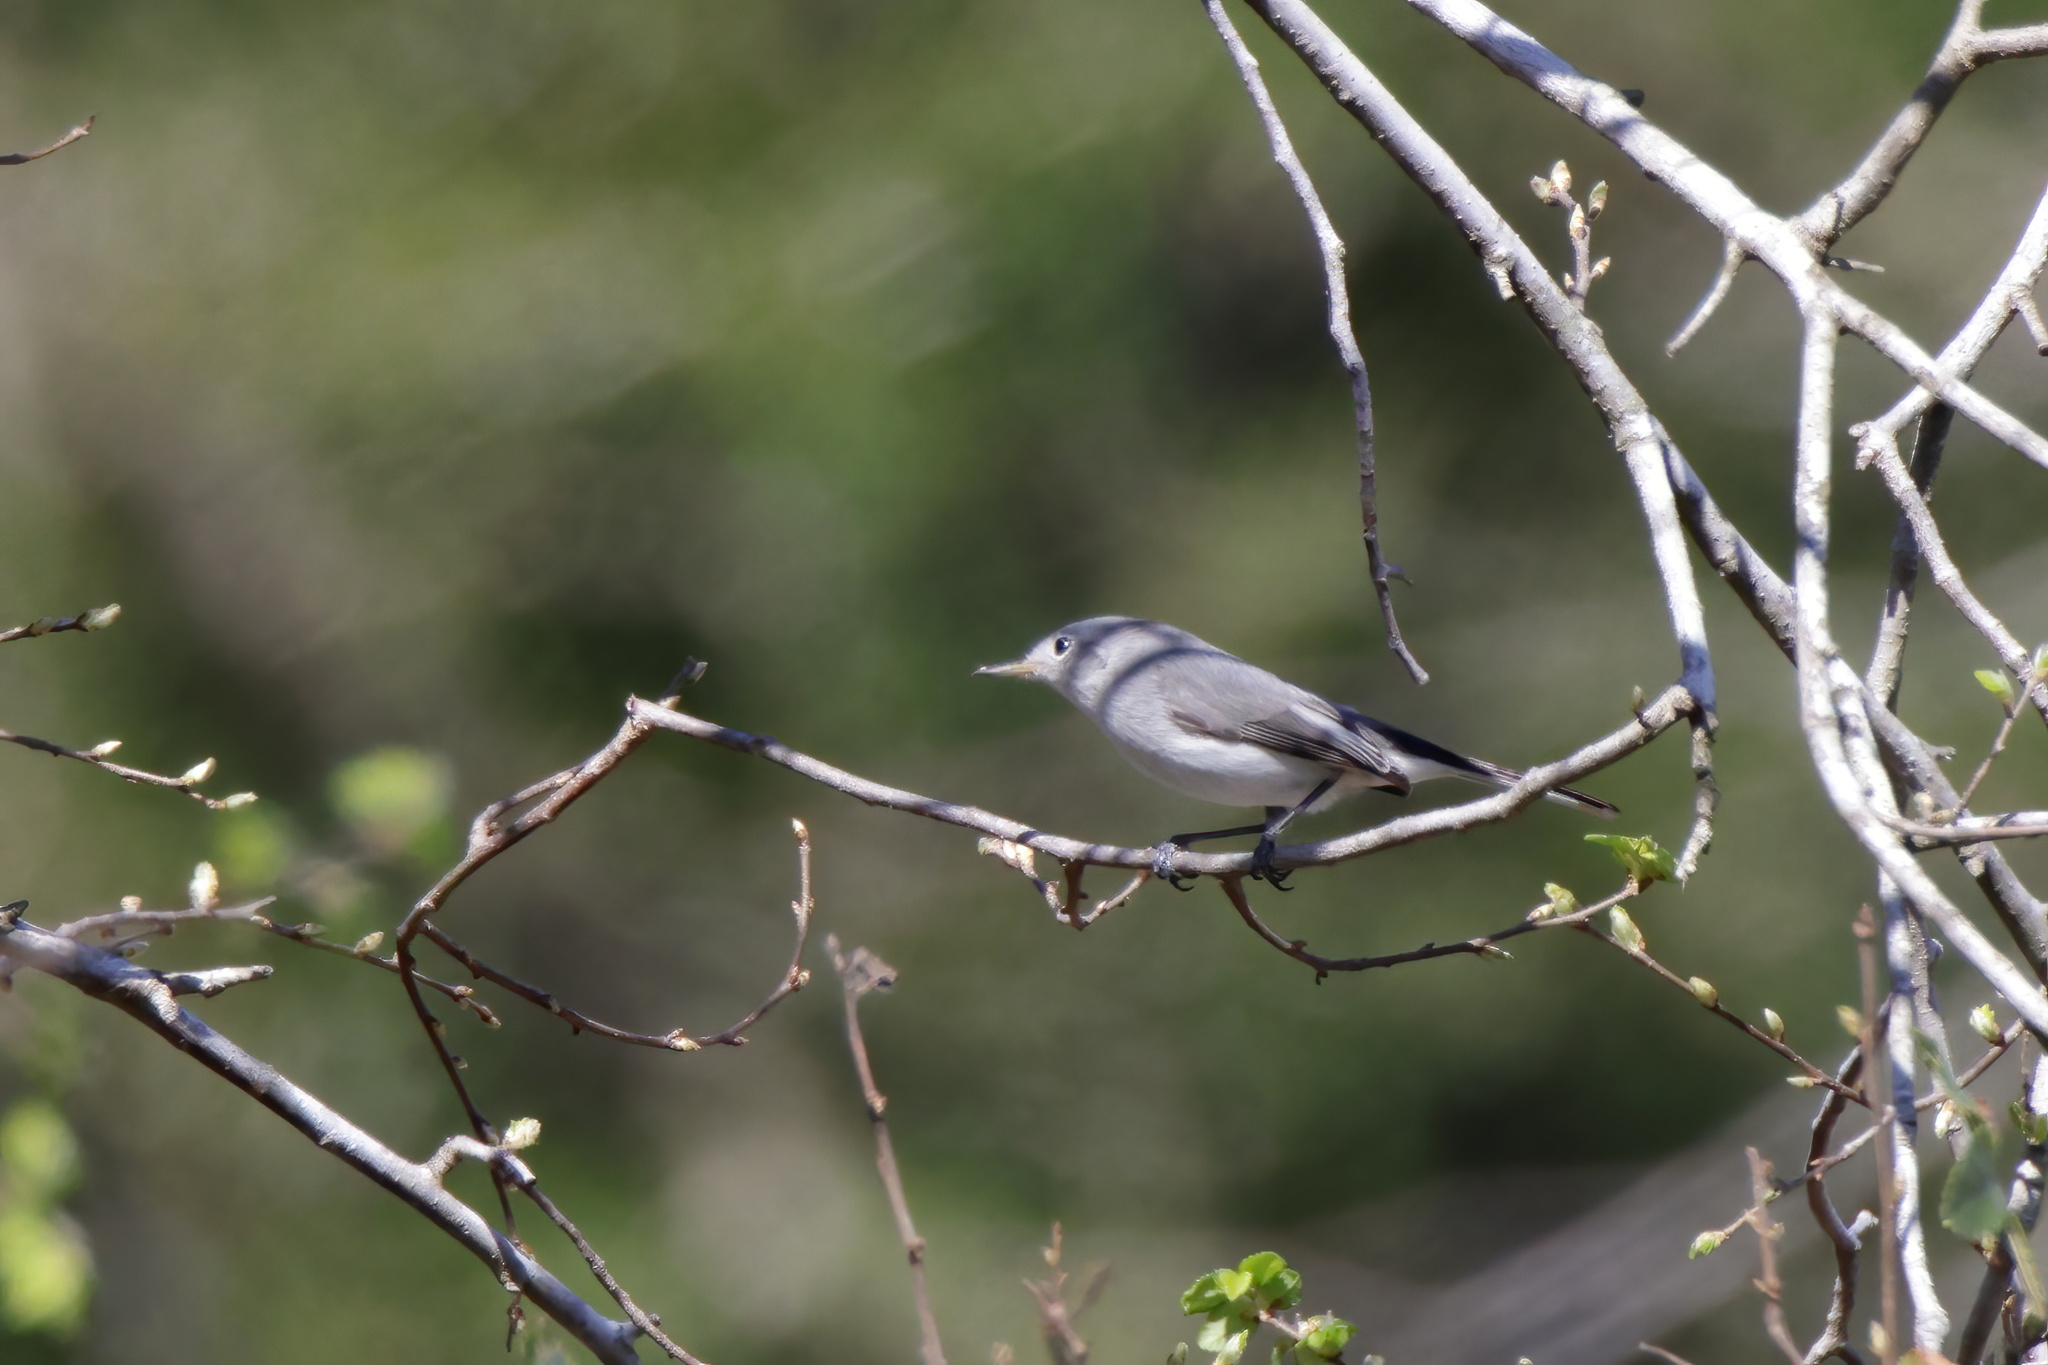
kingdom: Animalia
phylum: Chordata
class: Aves
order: Passeriformes
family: Polioptilidae
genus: Polioptila
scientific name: Polioptila caerulea
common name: Blue-gray gnatcatcher
